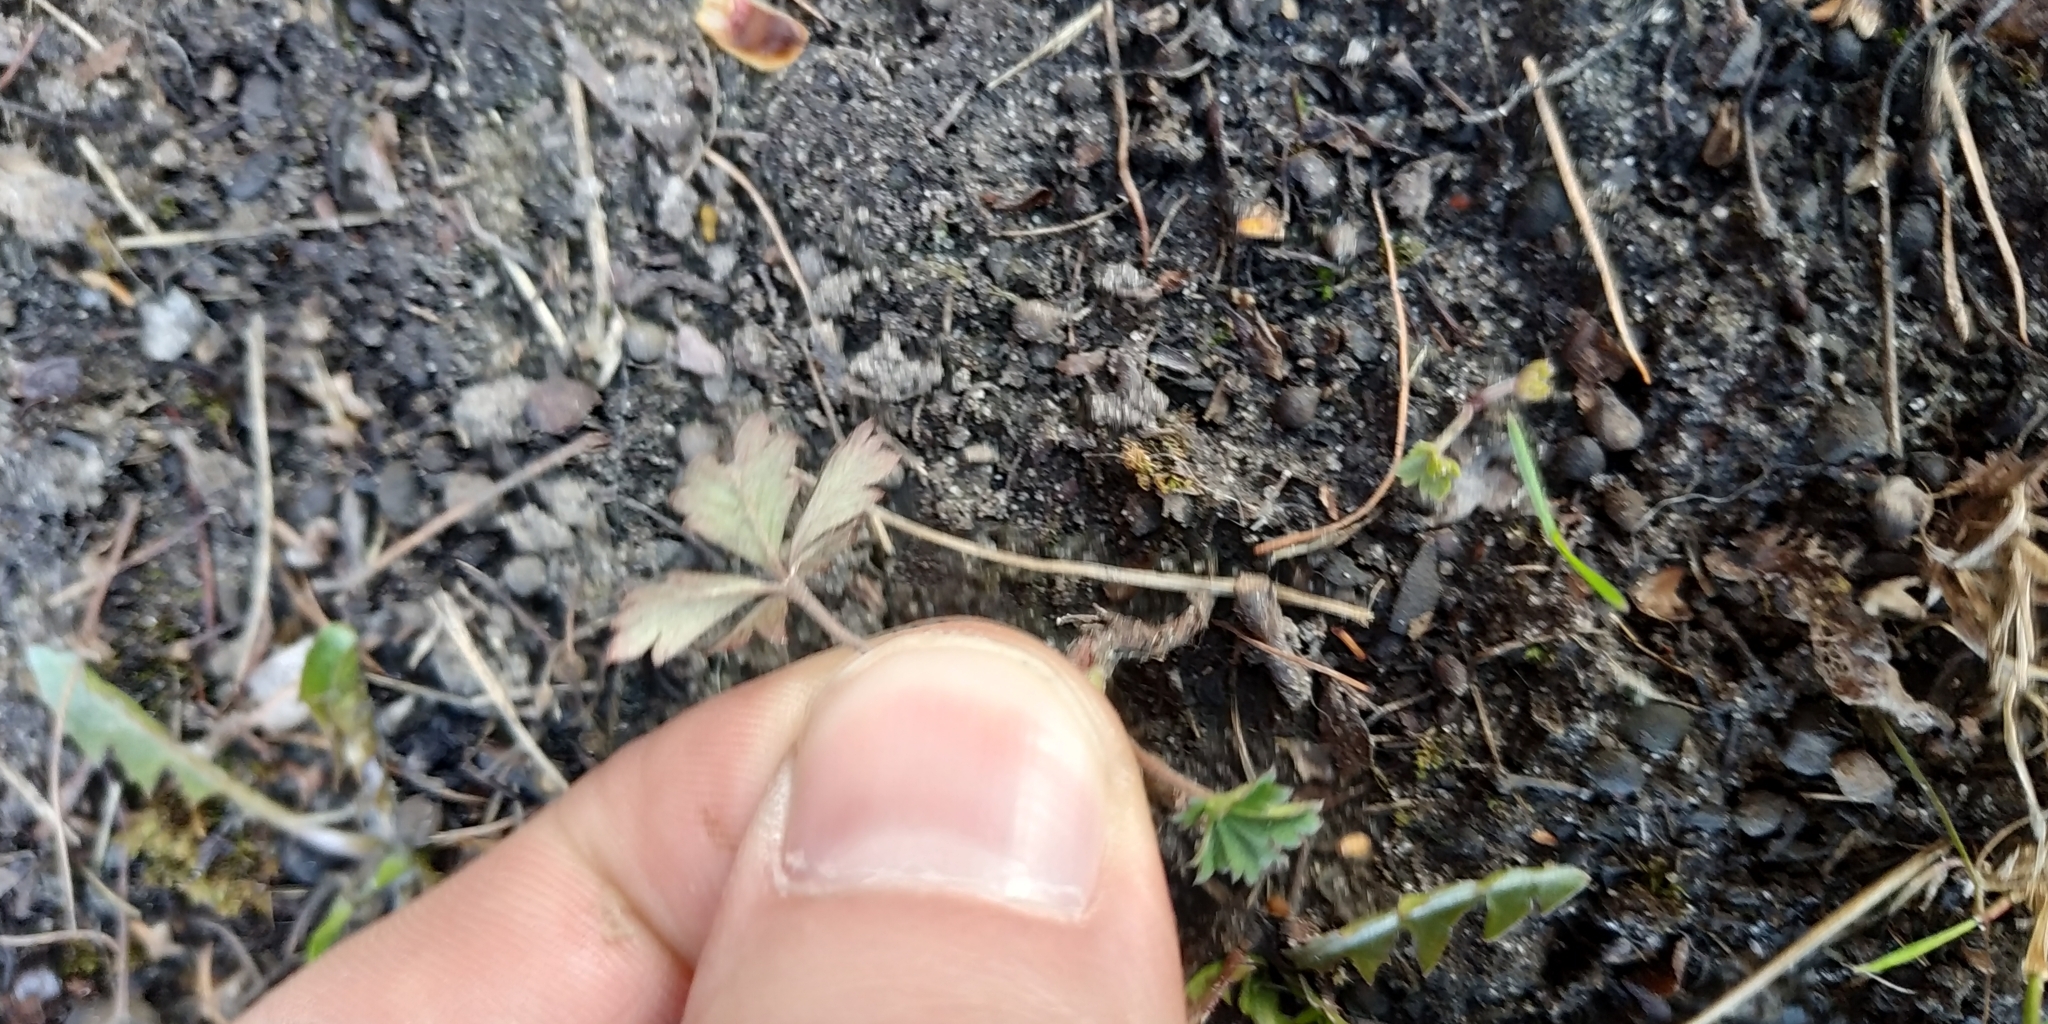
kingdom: Plantae
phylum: Tracheophyta
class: Magnoliopsida
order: Rosales
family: Rosaceae
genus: Potentilla
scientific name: Potentilla argentea
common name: Hoary cinquefoil
